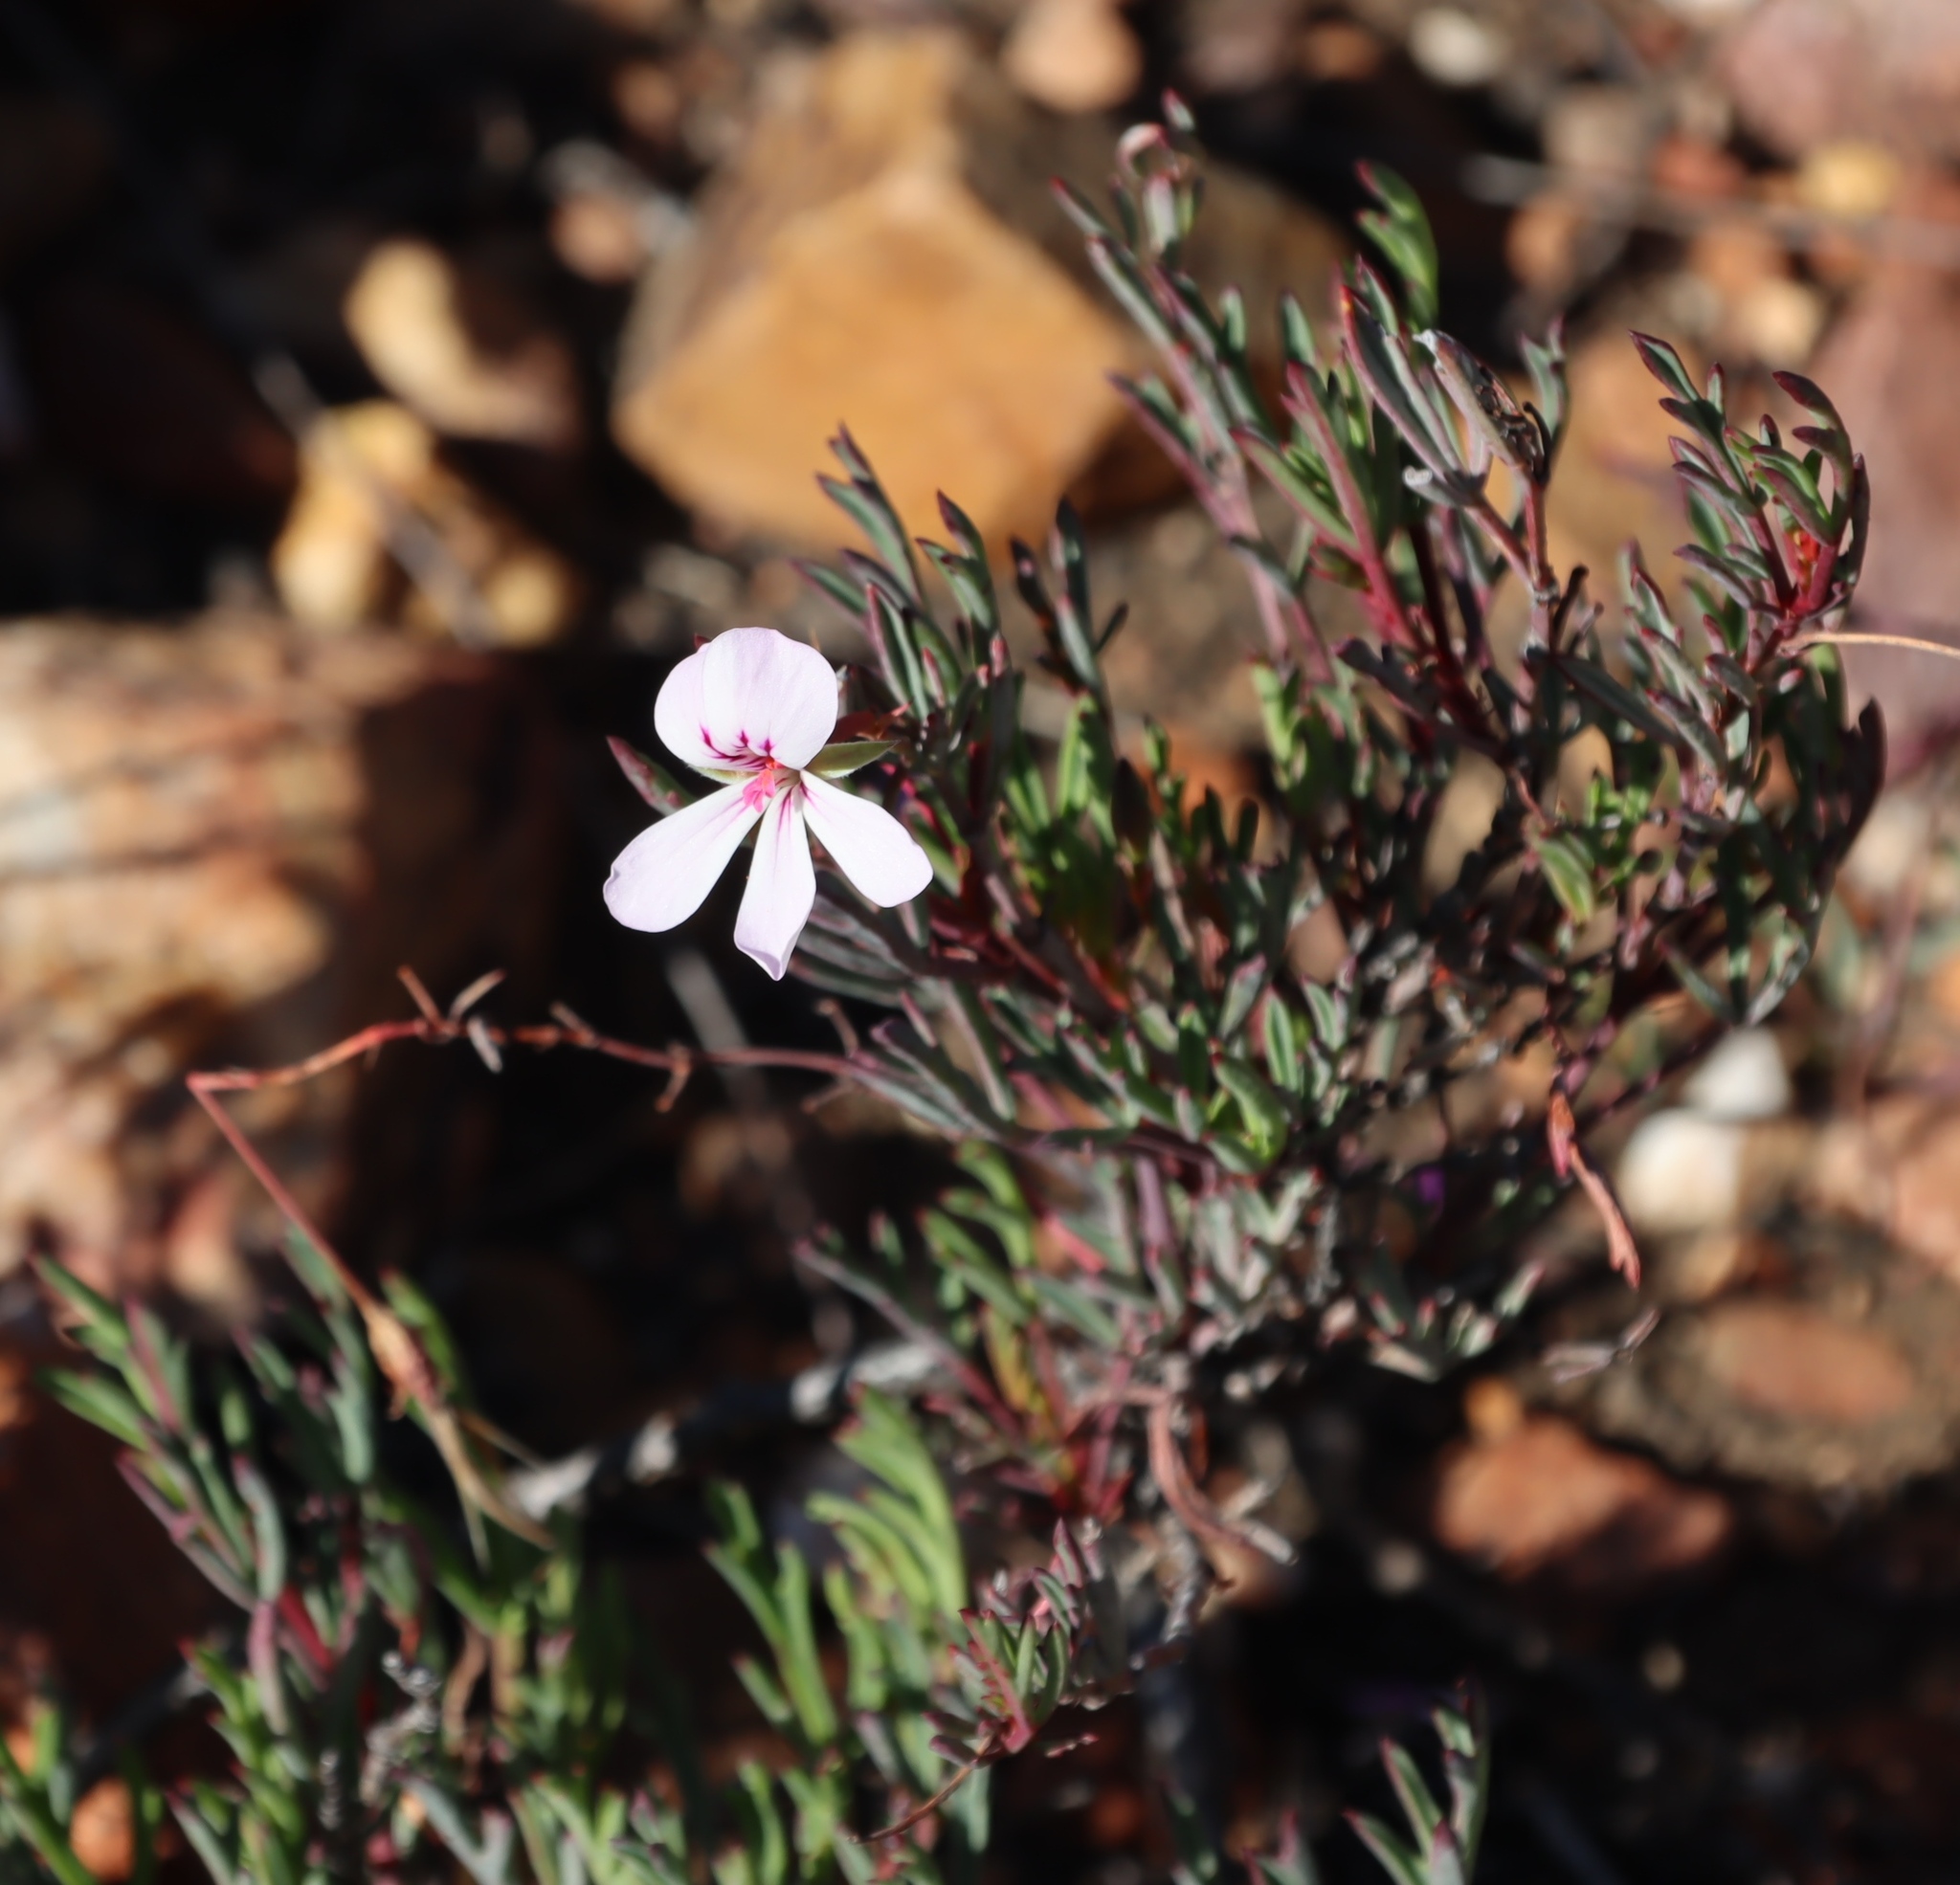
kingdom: Plantae
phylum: Tracheophyta
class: Magnoliopsida
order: Geraniales
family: Geraniaceae
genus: Pelargonium
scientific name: Pelargonium laevigatum
